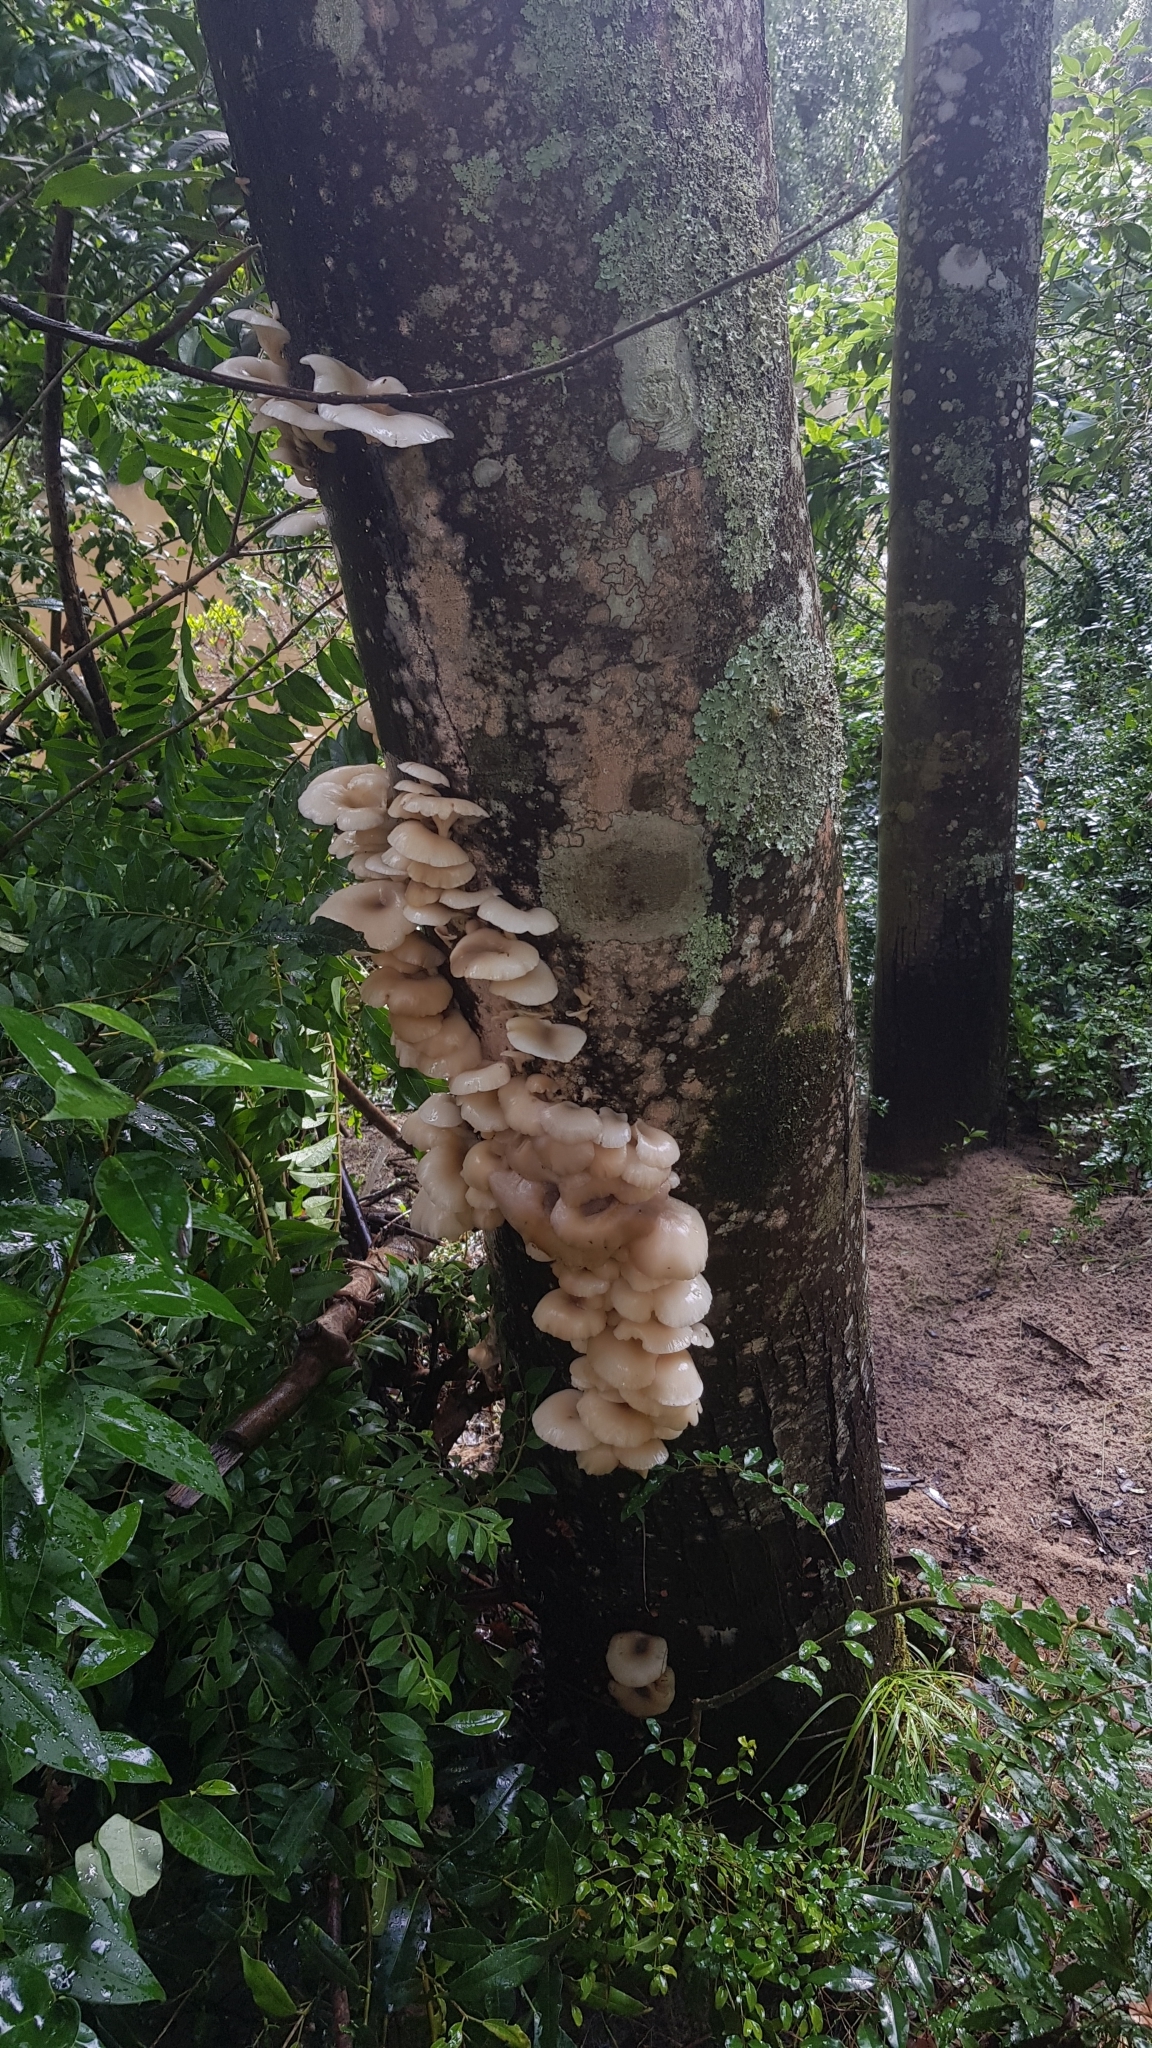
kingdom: Fungi
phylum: Basidiomycota
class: Agaricomycetes
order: Agaricales
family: Omphalotaceae
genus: Omphalotus
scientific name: Omphalotus nidiformis
